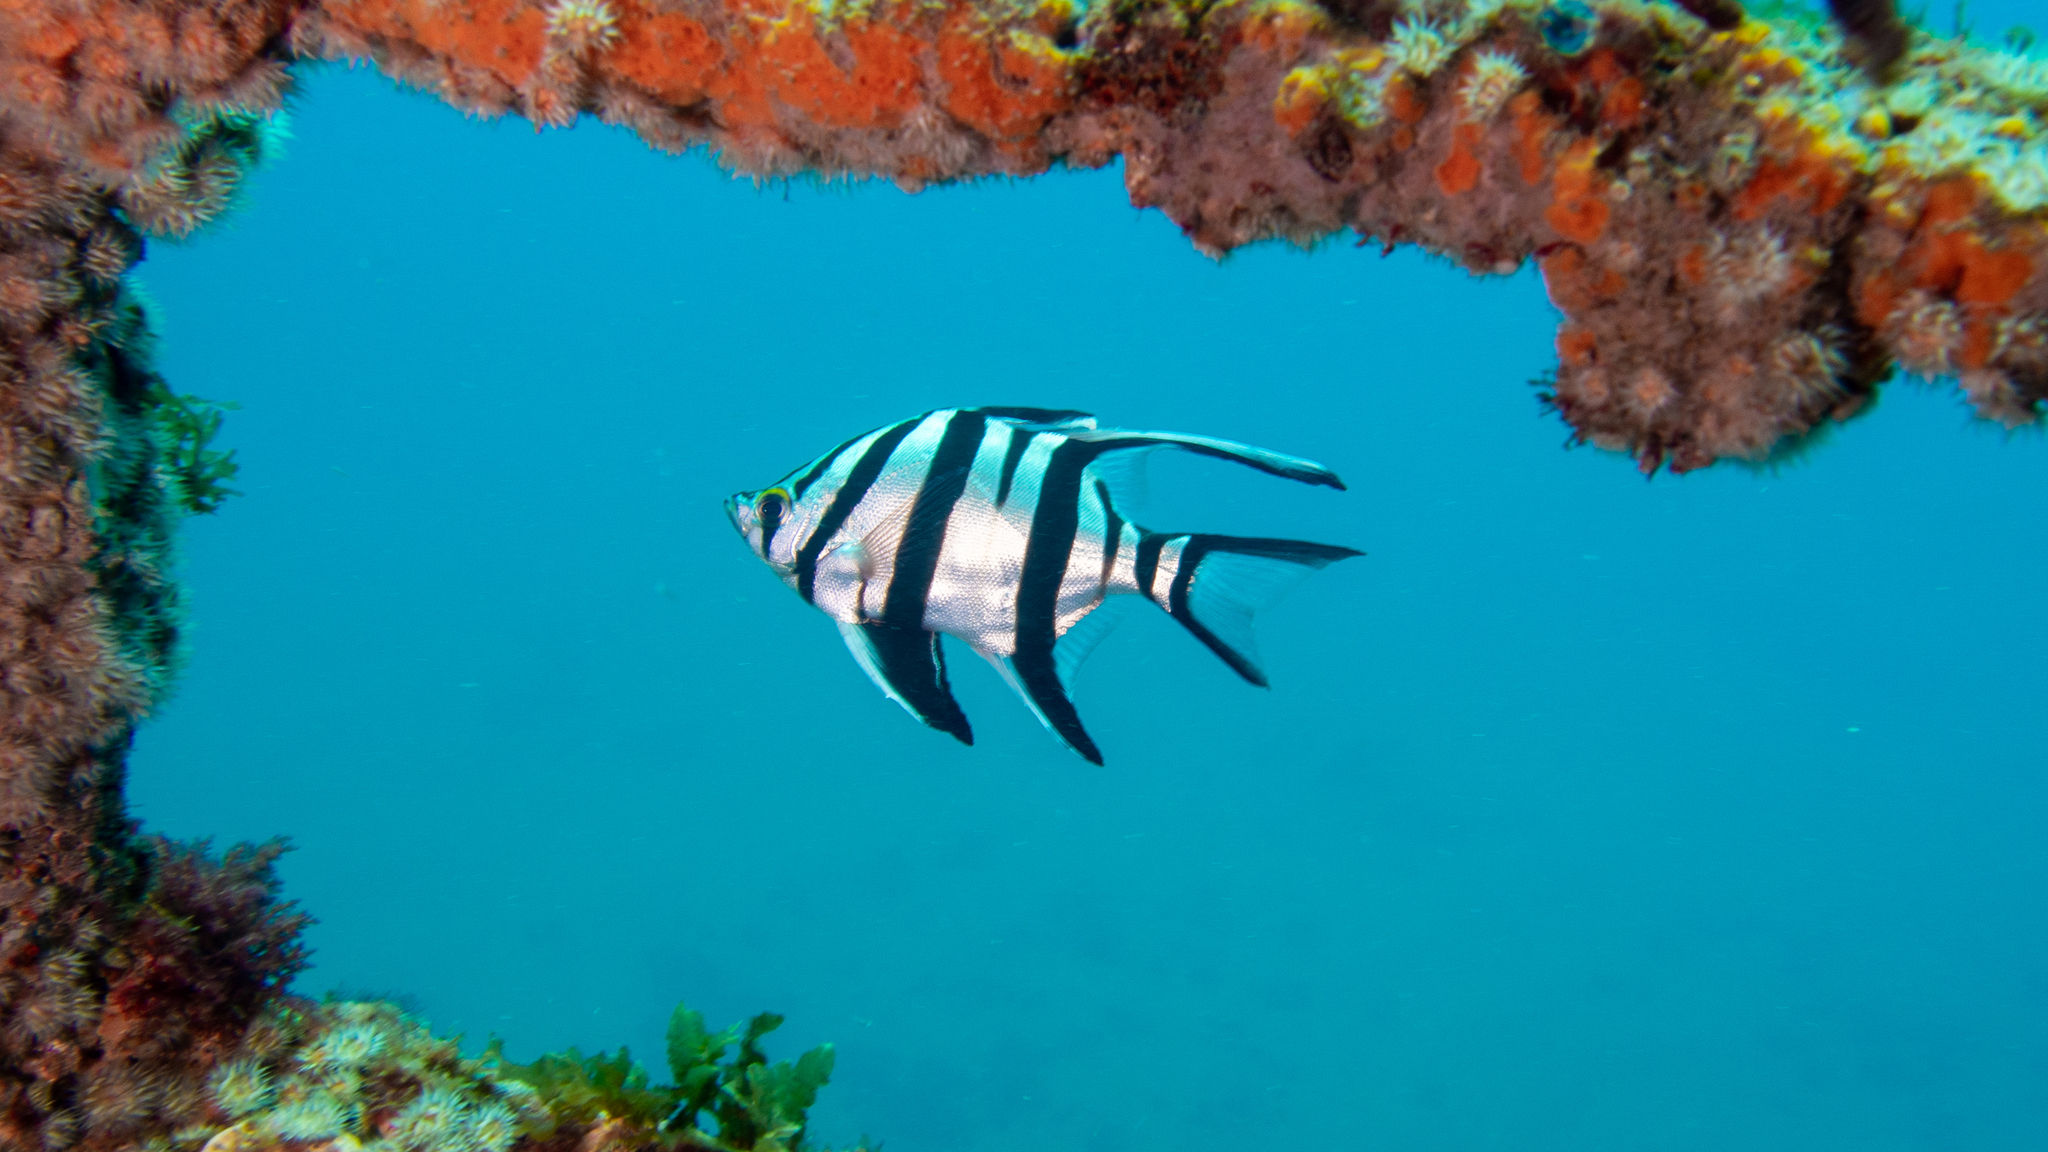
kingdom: Animalia
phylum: Chordata
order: Perciformes
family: Enoplosidae
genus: Enoplosus
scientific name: Enoplosus armatus
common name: Old wife
